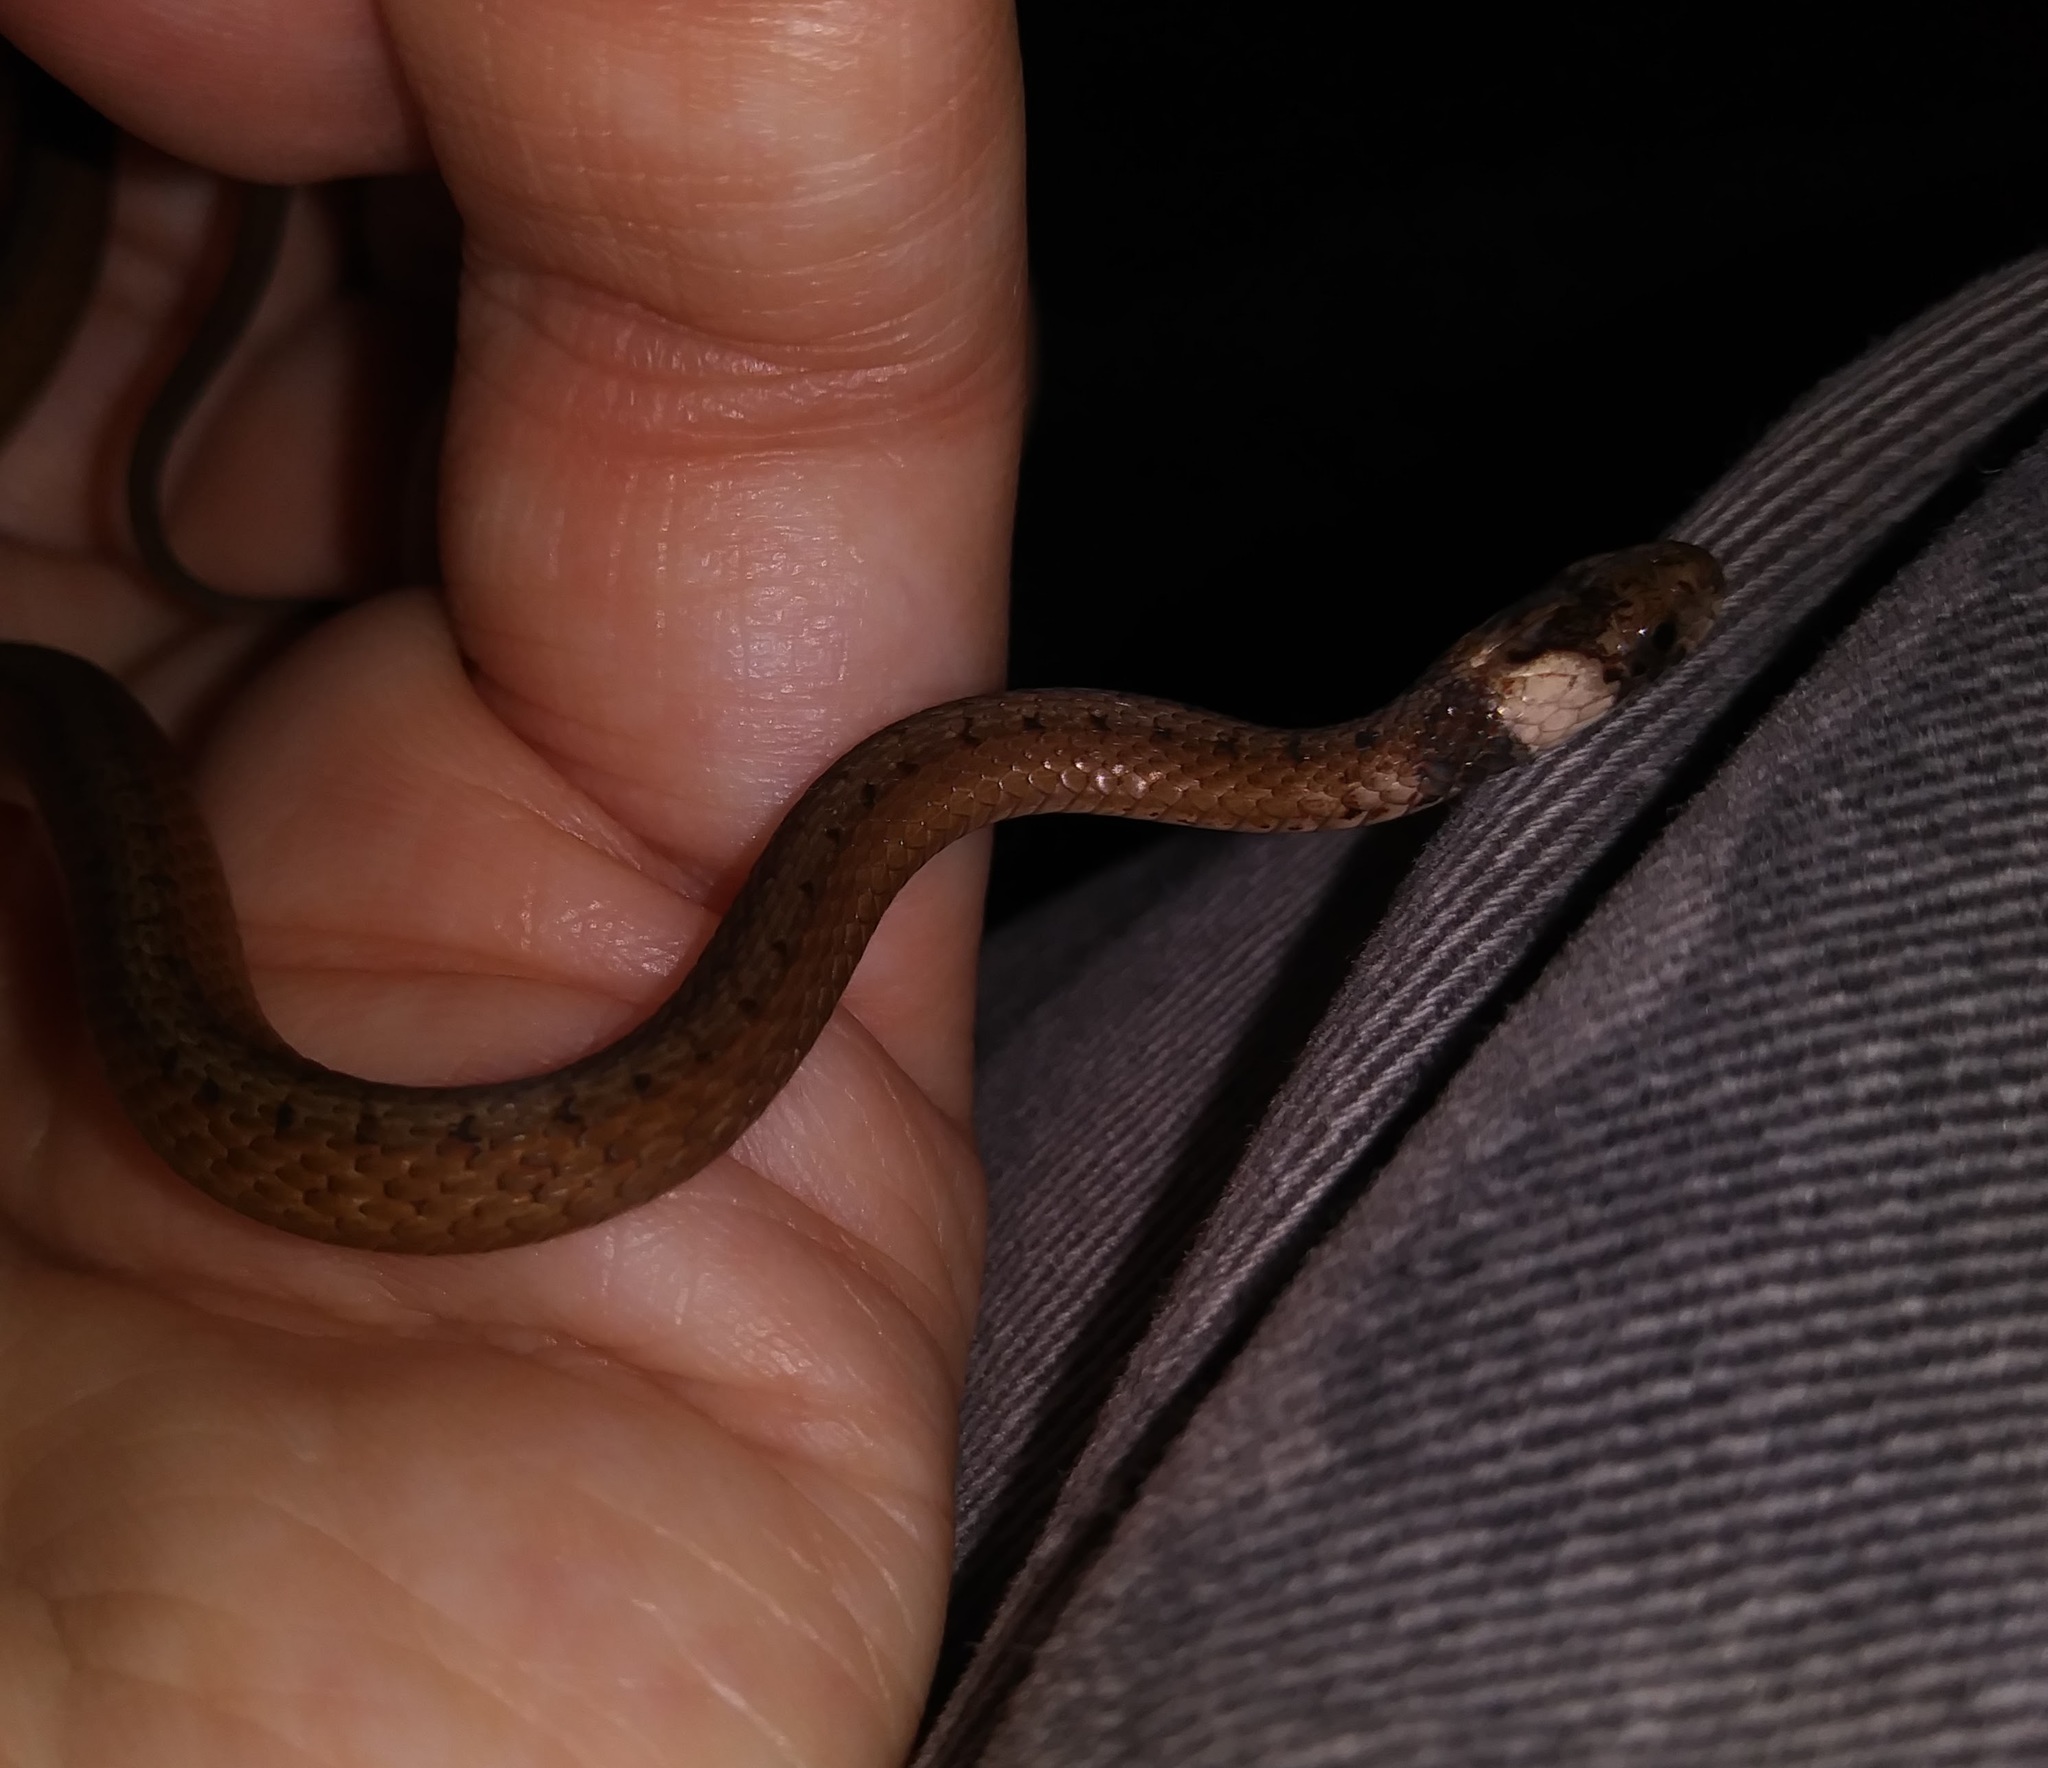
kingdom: Animalia
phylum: Chordata
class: Squamata
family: Colubridae
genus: Storeria
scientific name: Storeria victa
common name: Florida brown snake
